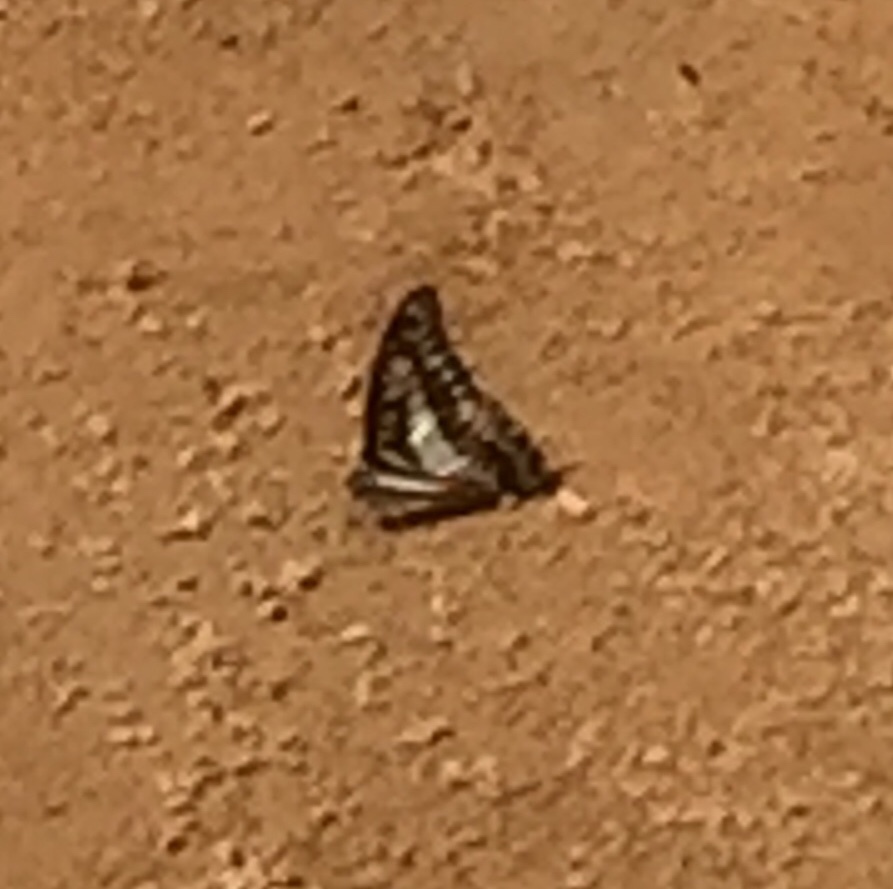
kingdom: Animalia
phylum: Arthropoda
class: Insecta
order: Lepidoptera
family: Papilionidae
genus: Graphium
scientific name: Graphium doson
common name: Common jay
